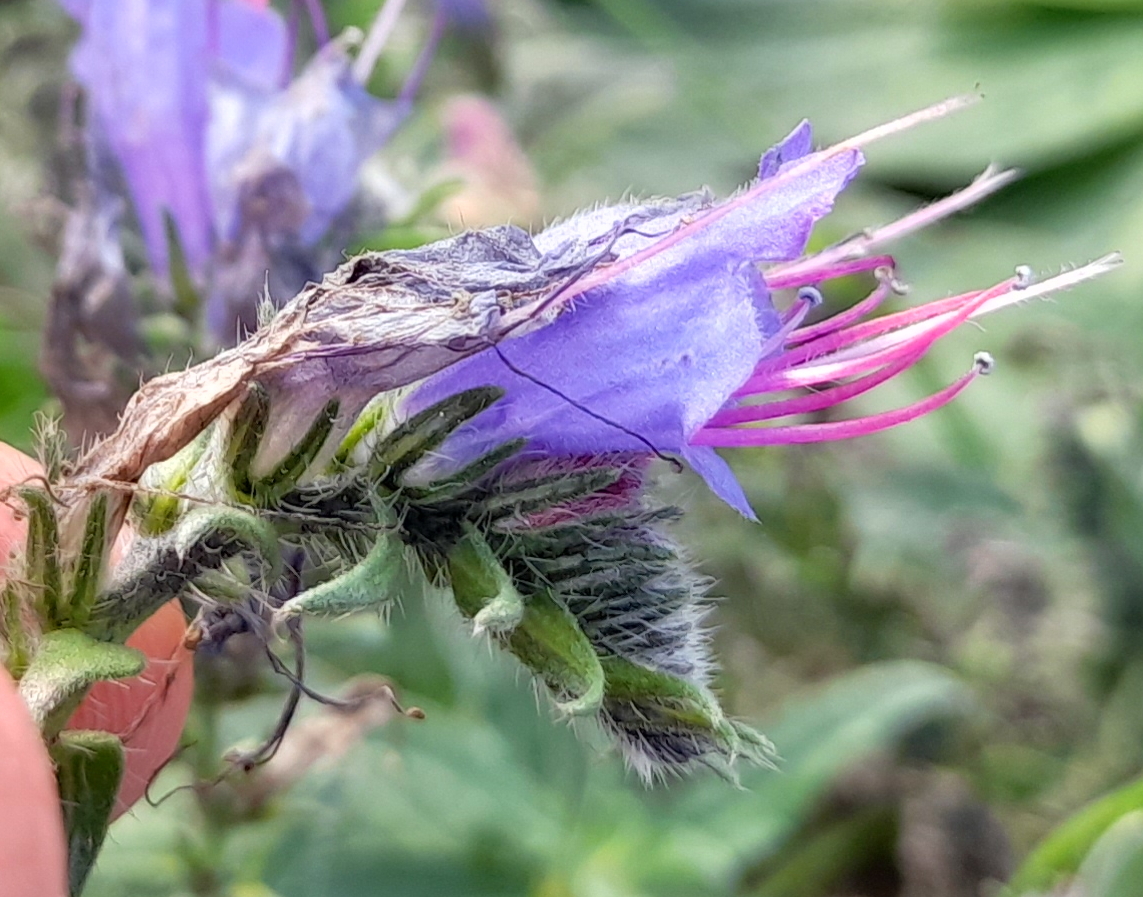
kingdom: Plantae
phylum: Tracheophyta
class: Magnoliopsida
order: Boraginales
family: Boraginaceae
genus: Echium
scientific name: Echium vulgare
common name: Common viper's bugloss
